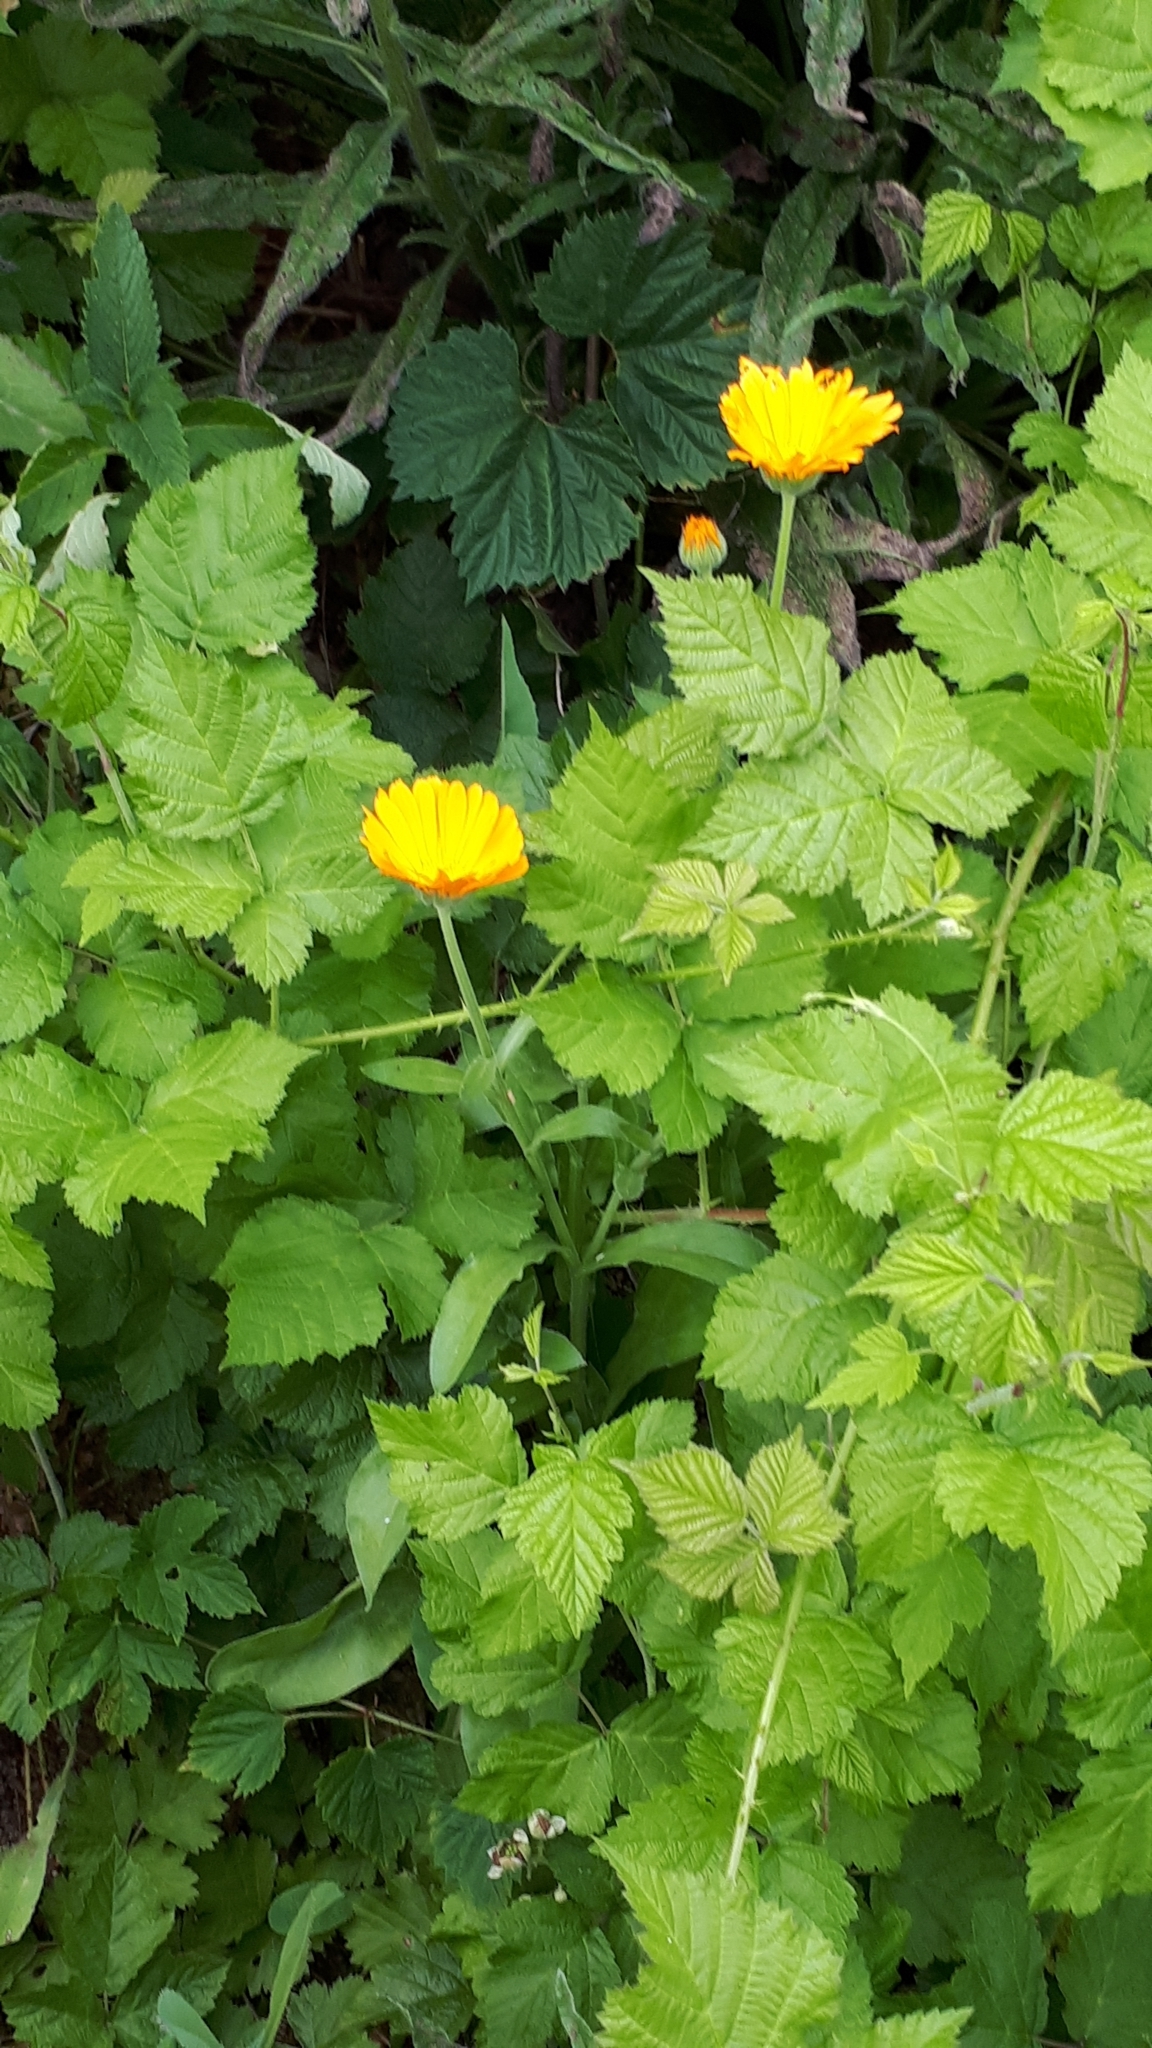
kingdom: Plantae
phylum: Tracheophyta
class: Magnoliopsida
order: Asterales
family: Asteraceae
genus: Calendula
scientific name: Calendula officinalis
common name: Pot marigold
